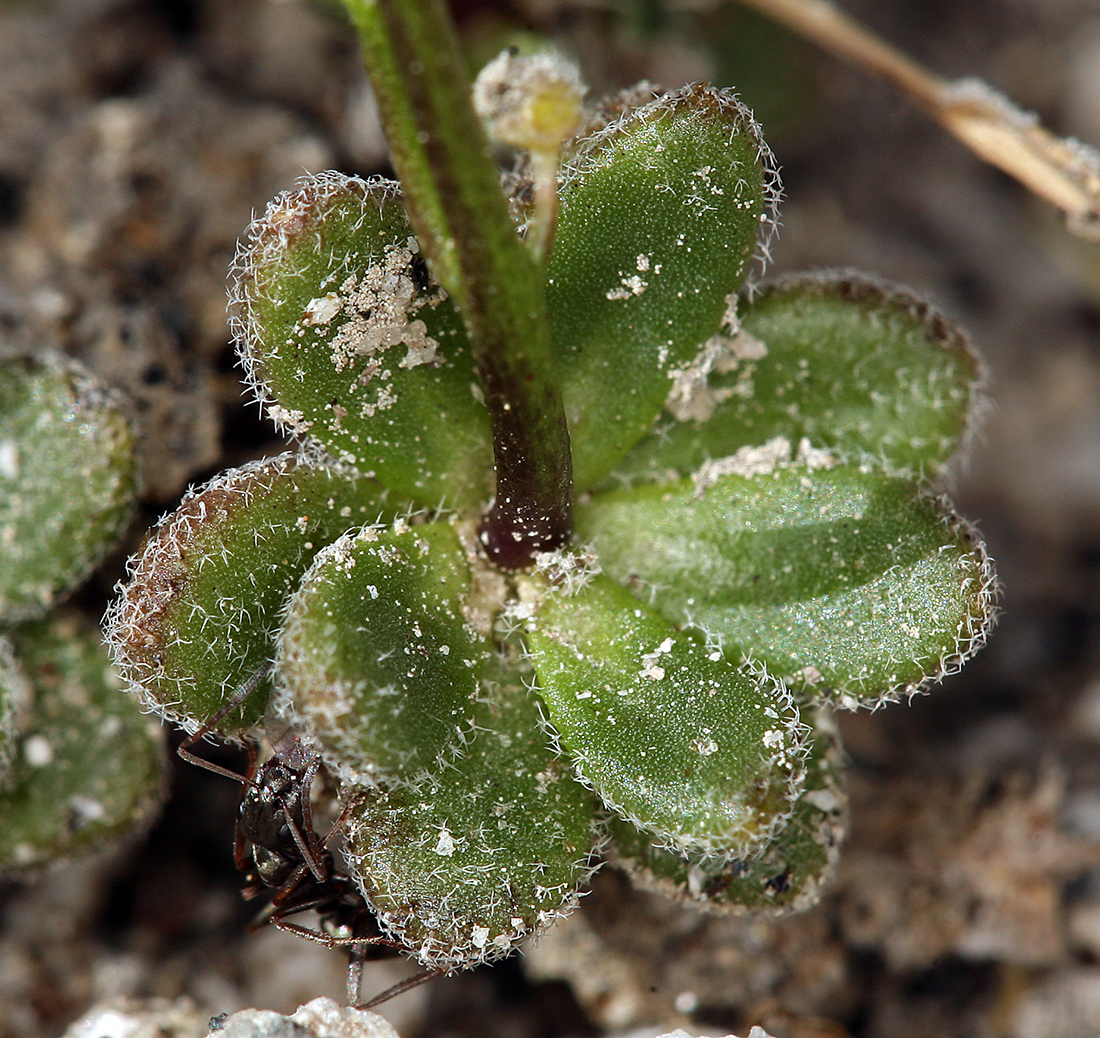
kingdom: Plantae
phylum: Tracheophyta
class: Magnoliopsida
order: Brassicales
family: Brassicaceae
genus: Draba
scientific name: Draba asterophora
